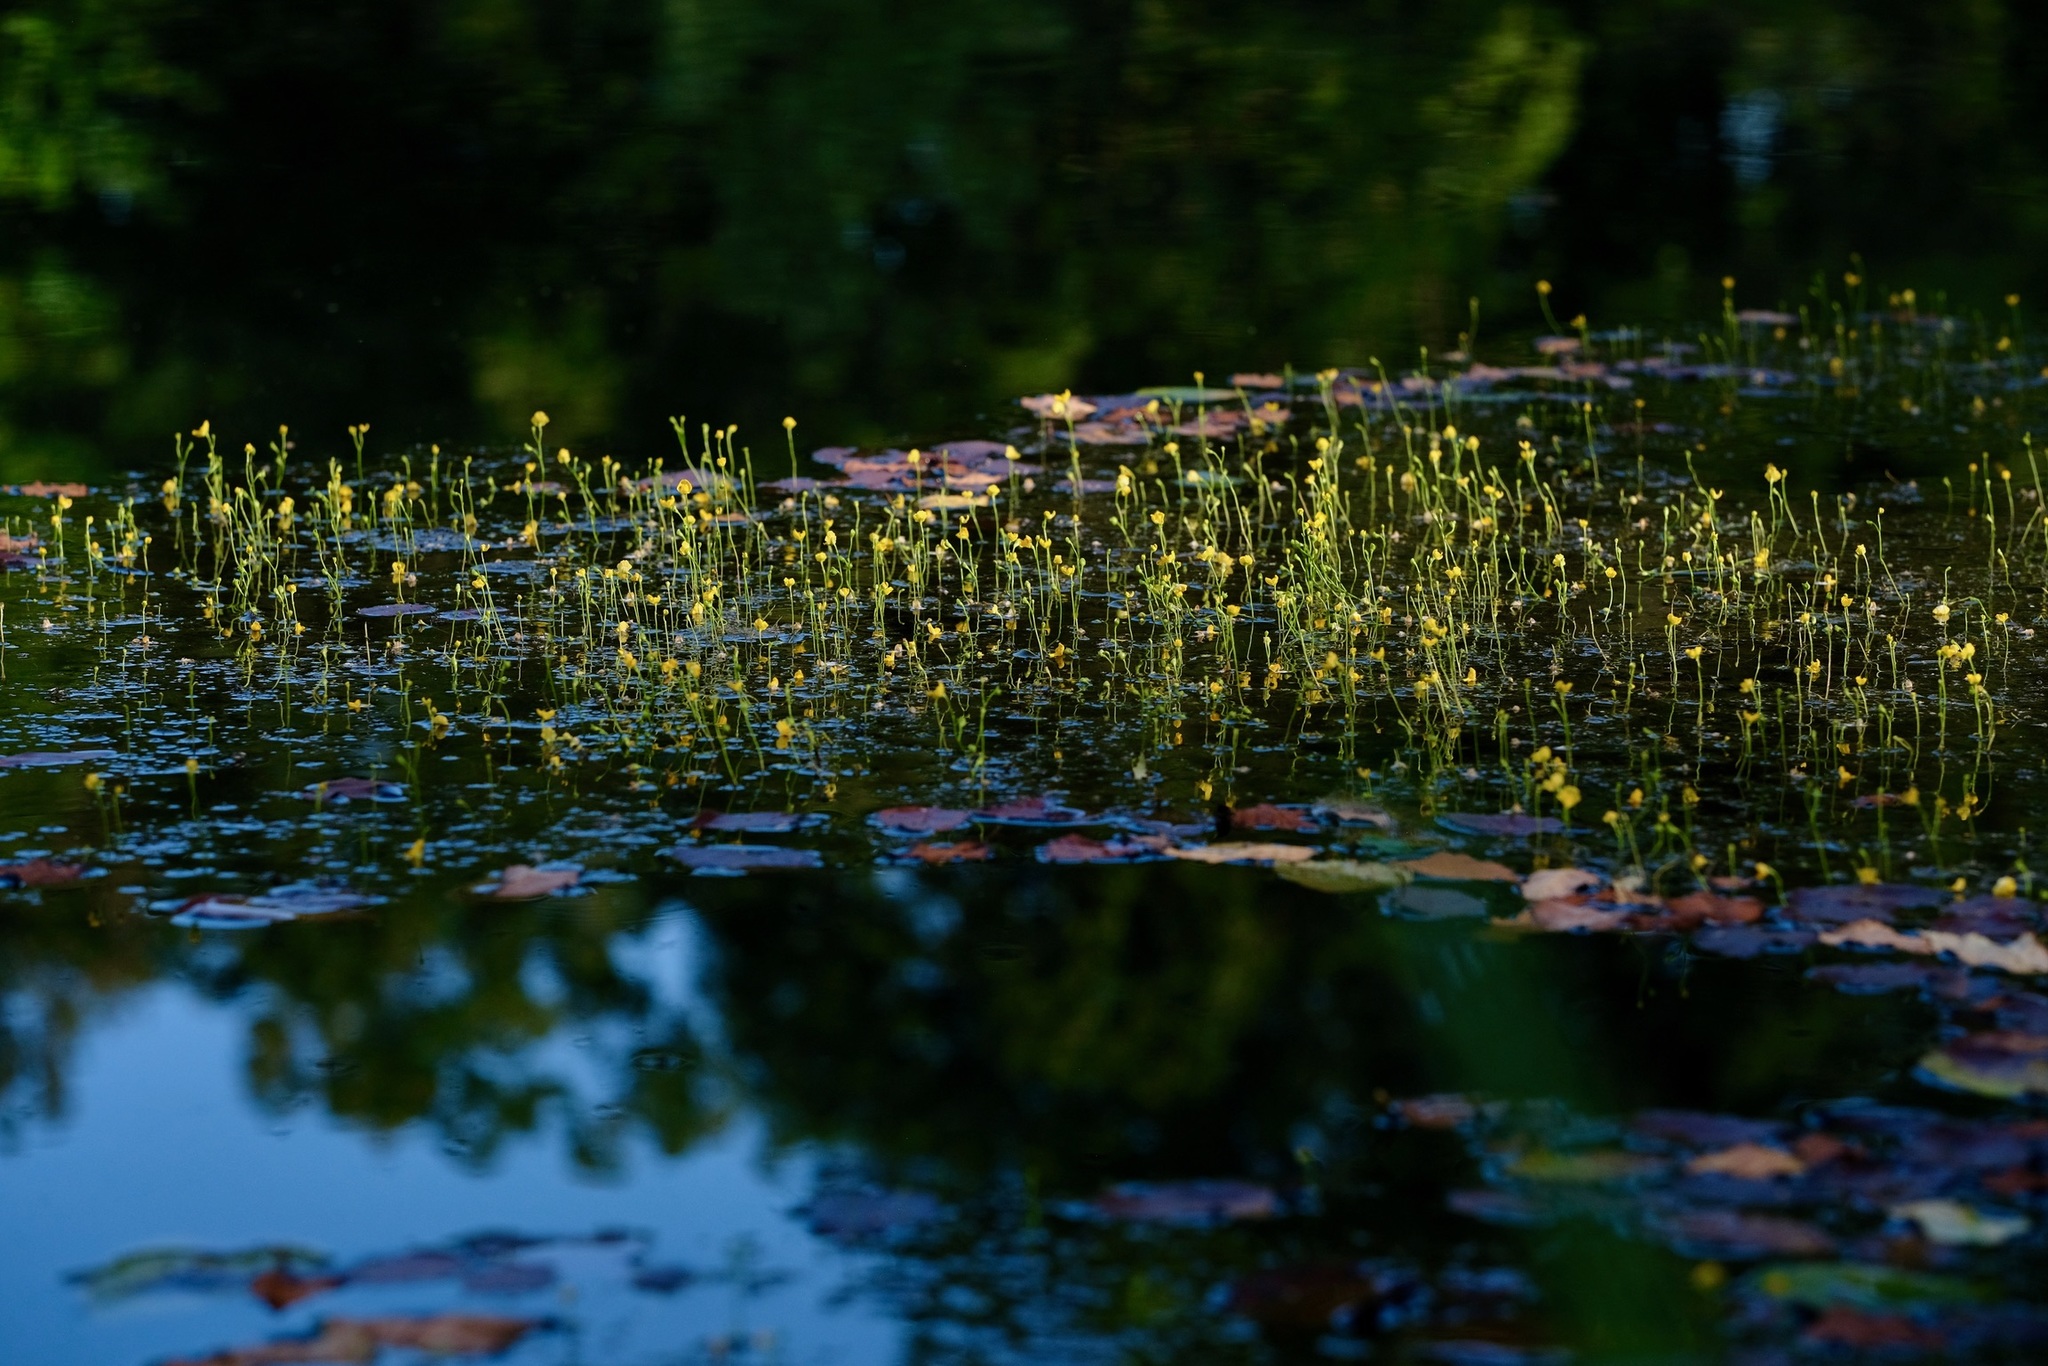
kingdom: Plantae
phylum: Tracheophyta
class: Magnoliopsida
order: Lamiales
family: Lentibulariaceae
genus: Utricularia
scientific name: Utricularia gibba
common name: Humped bladderwort
